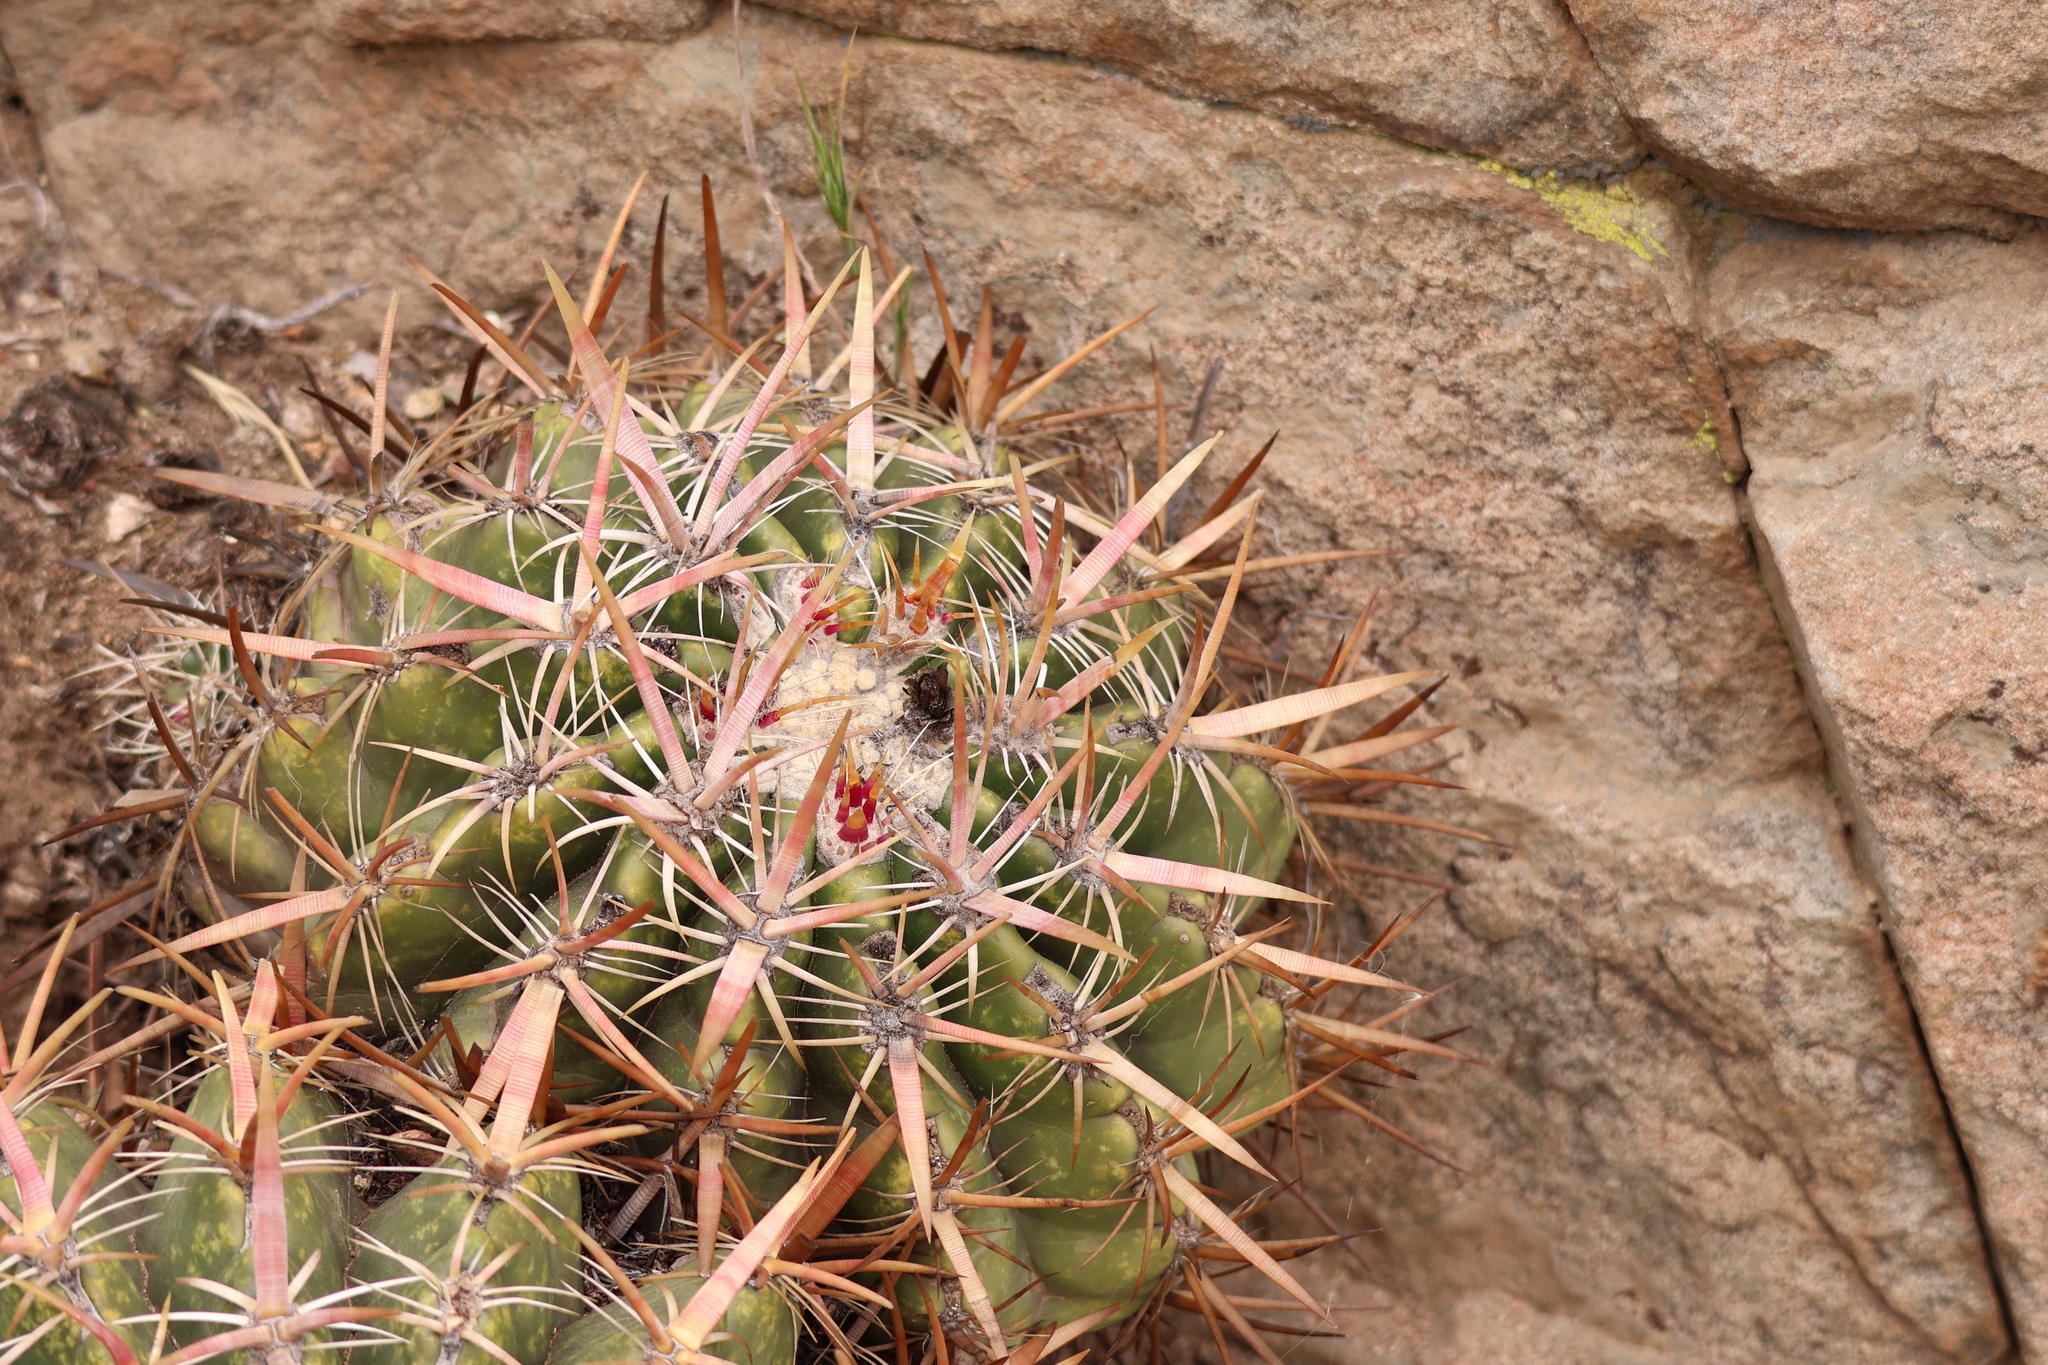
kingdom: Plantae
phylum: Tracheophyta
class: Magnoliopsida
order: Caryophyllales
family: Cactaceae
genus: Ferocactus
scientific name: Ferocactus viridescens
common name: San diego barrel cactus
